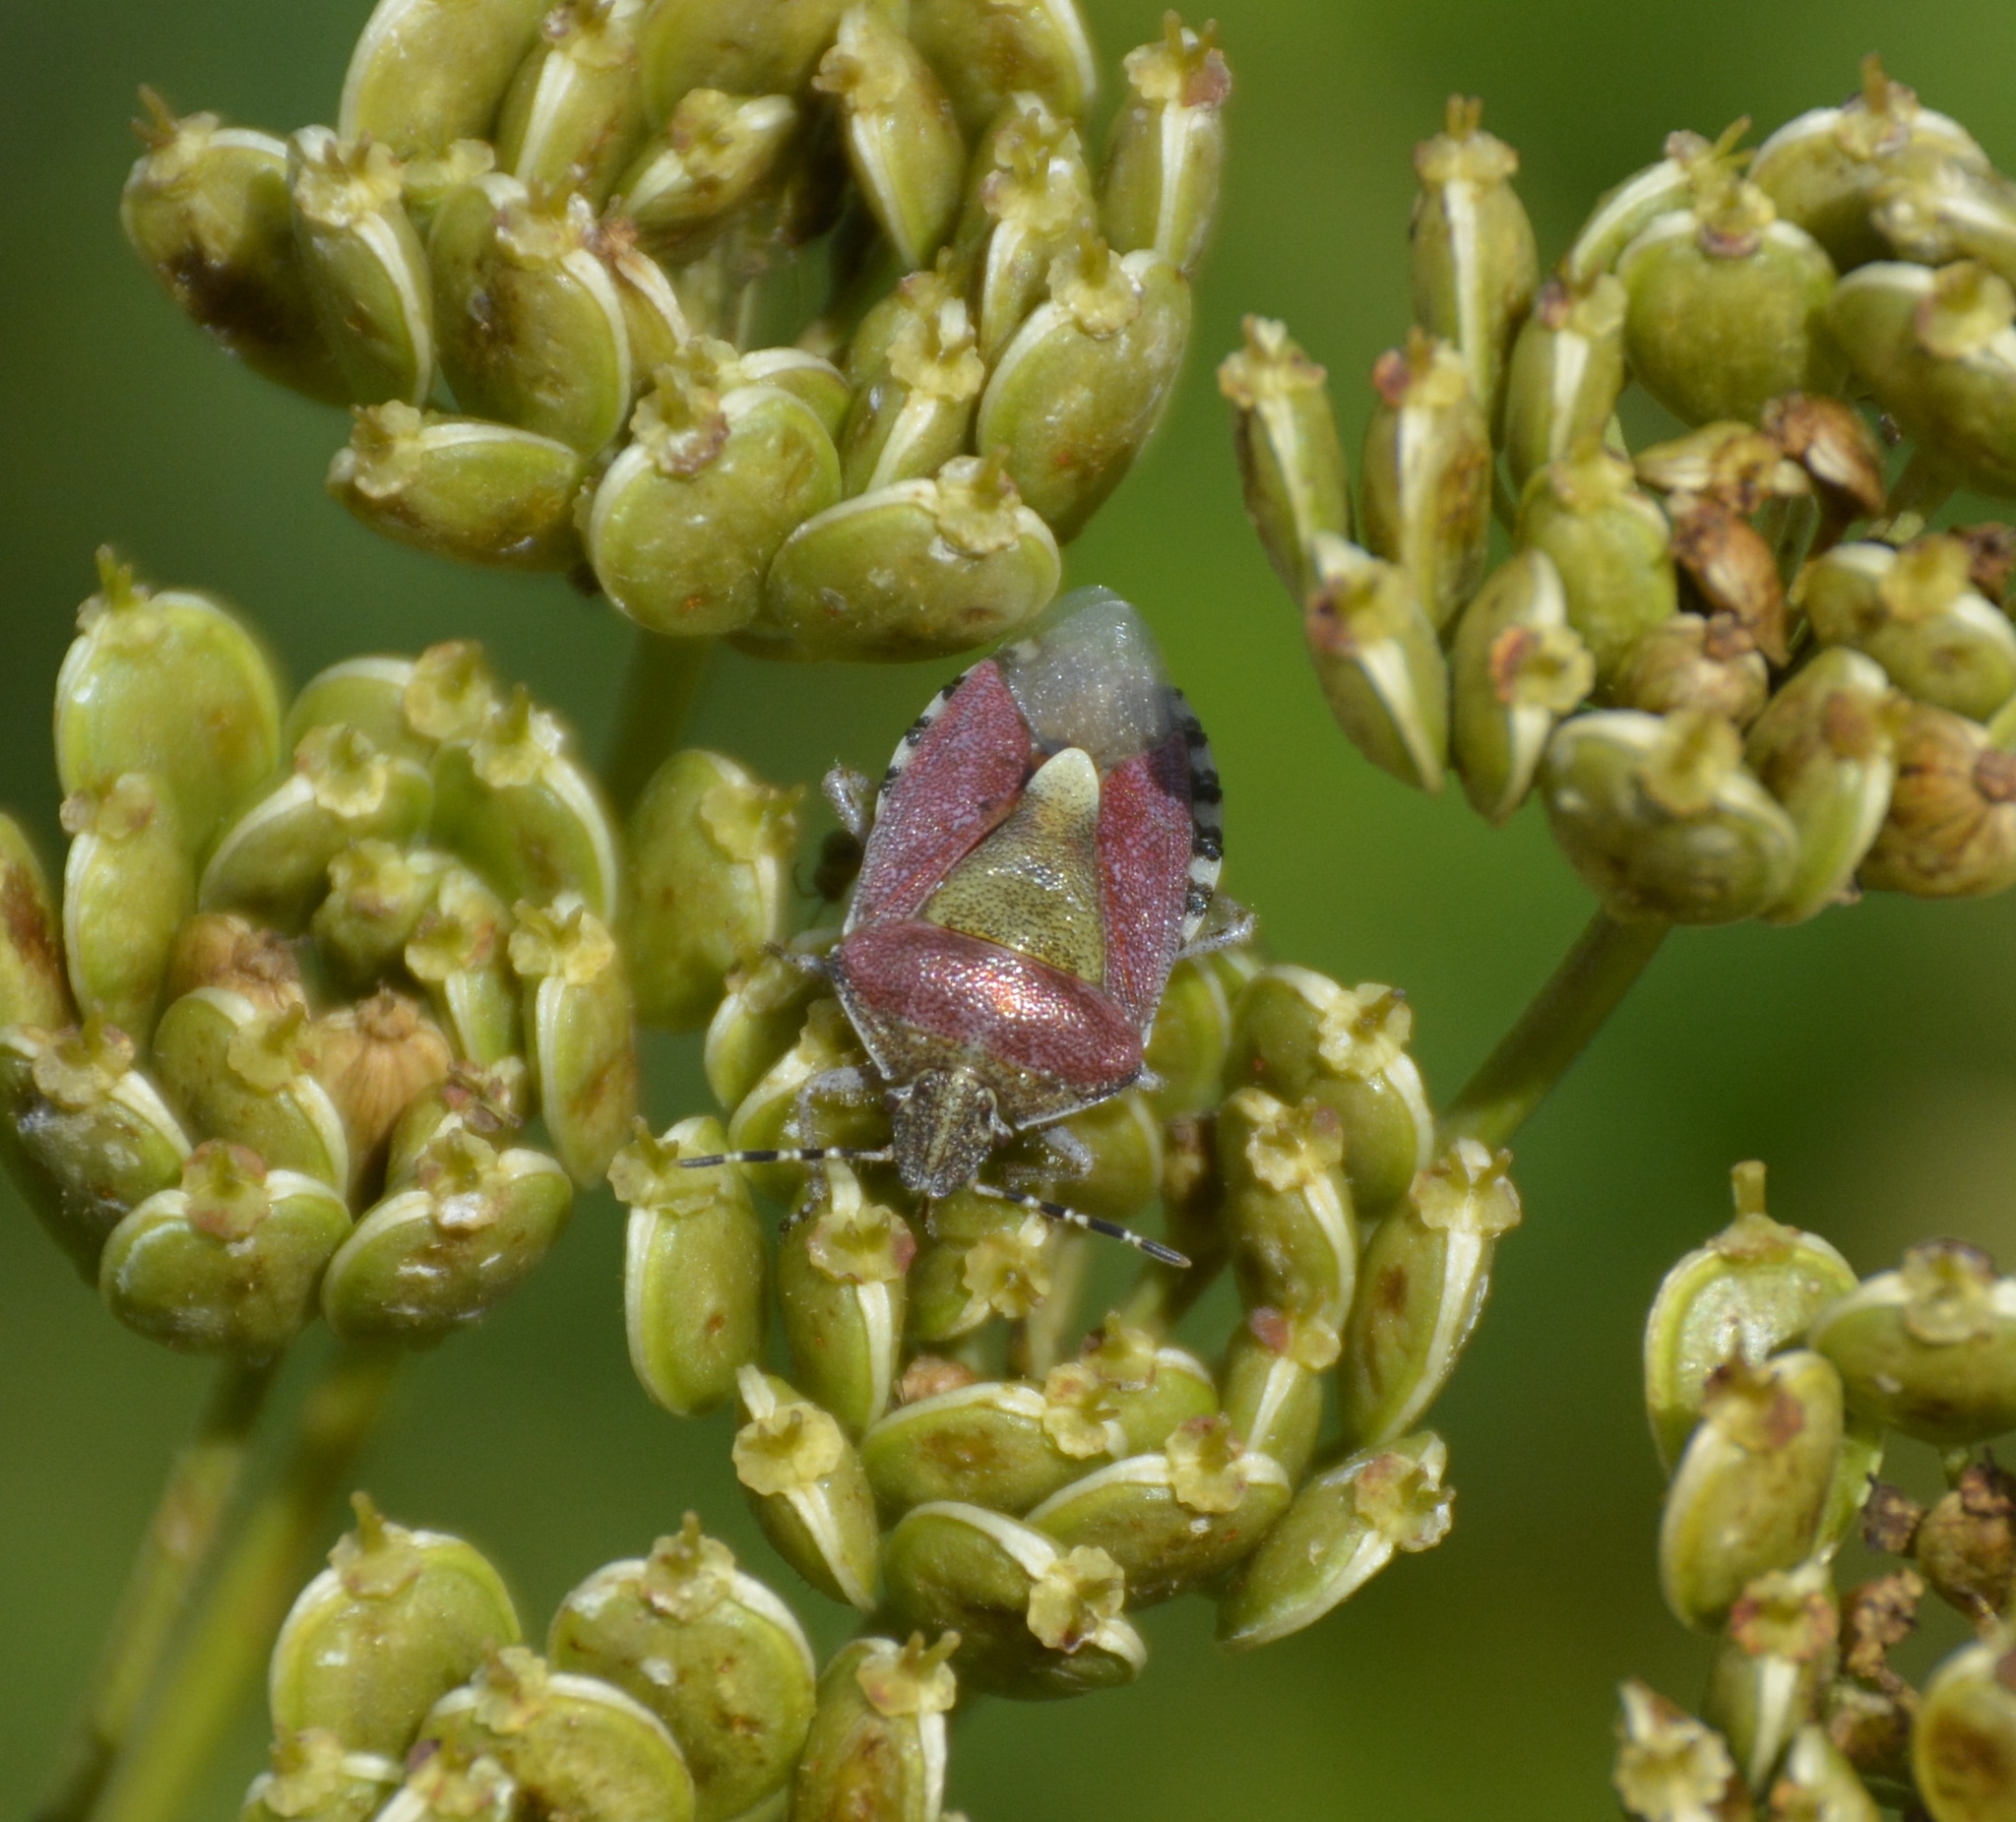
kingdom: Animalia
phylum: Arthropoda
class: Insecta
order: Hemiptera
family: Pentatomidae
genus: Dolycoris
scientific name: Dolycoris baccarum
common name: Sloe bug
